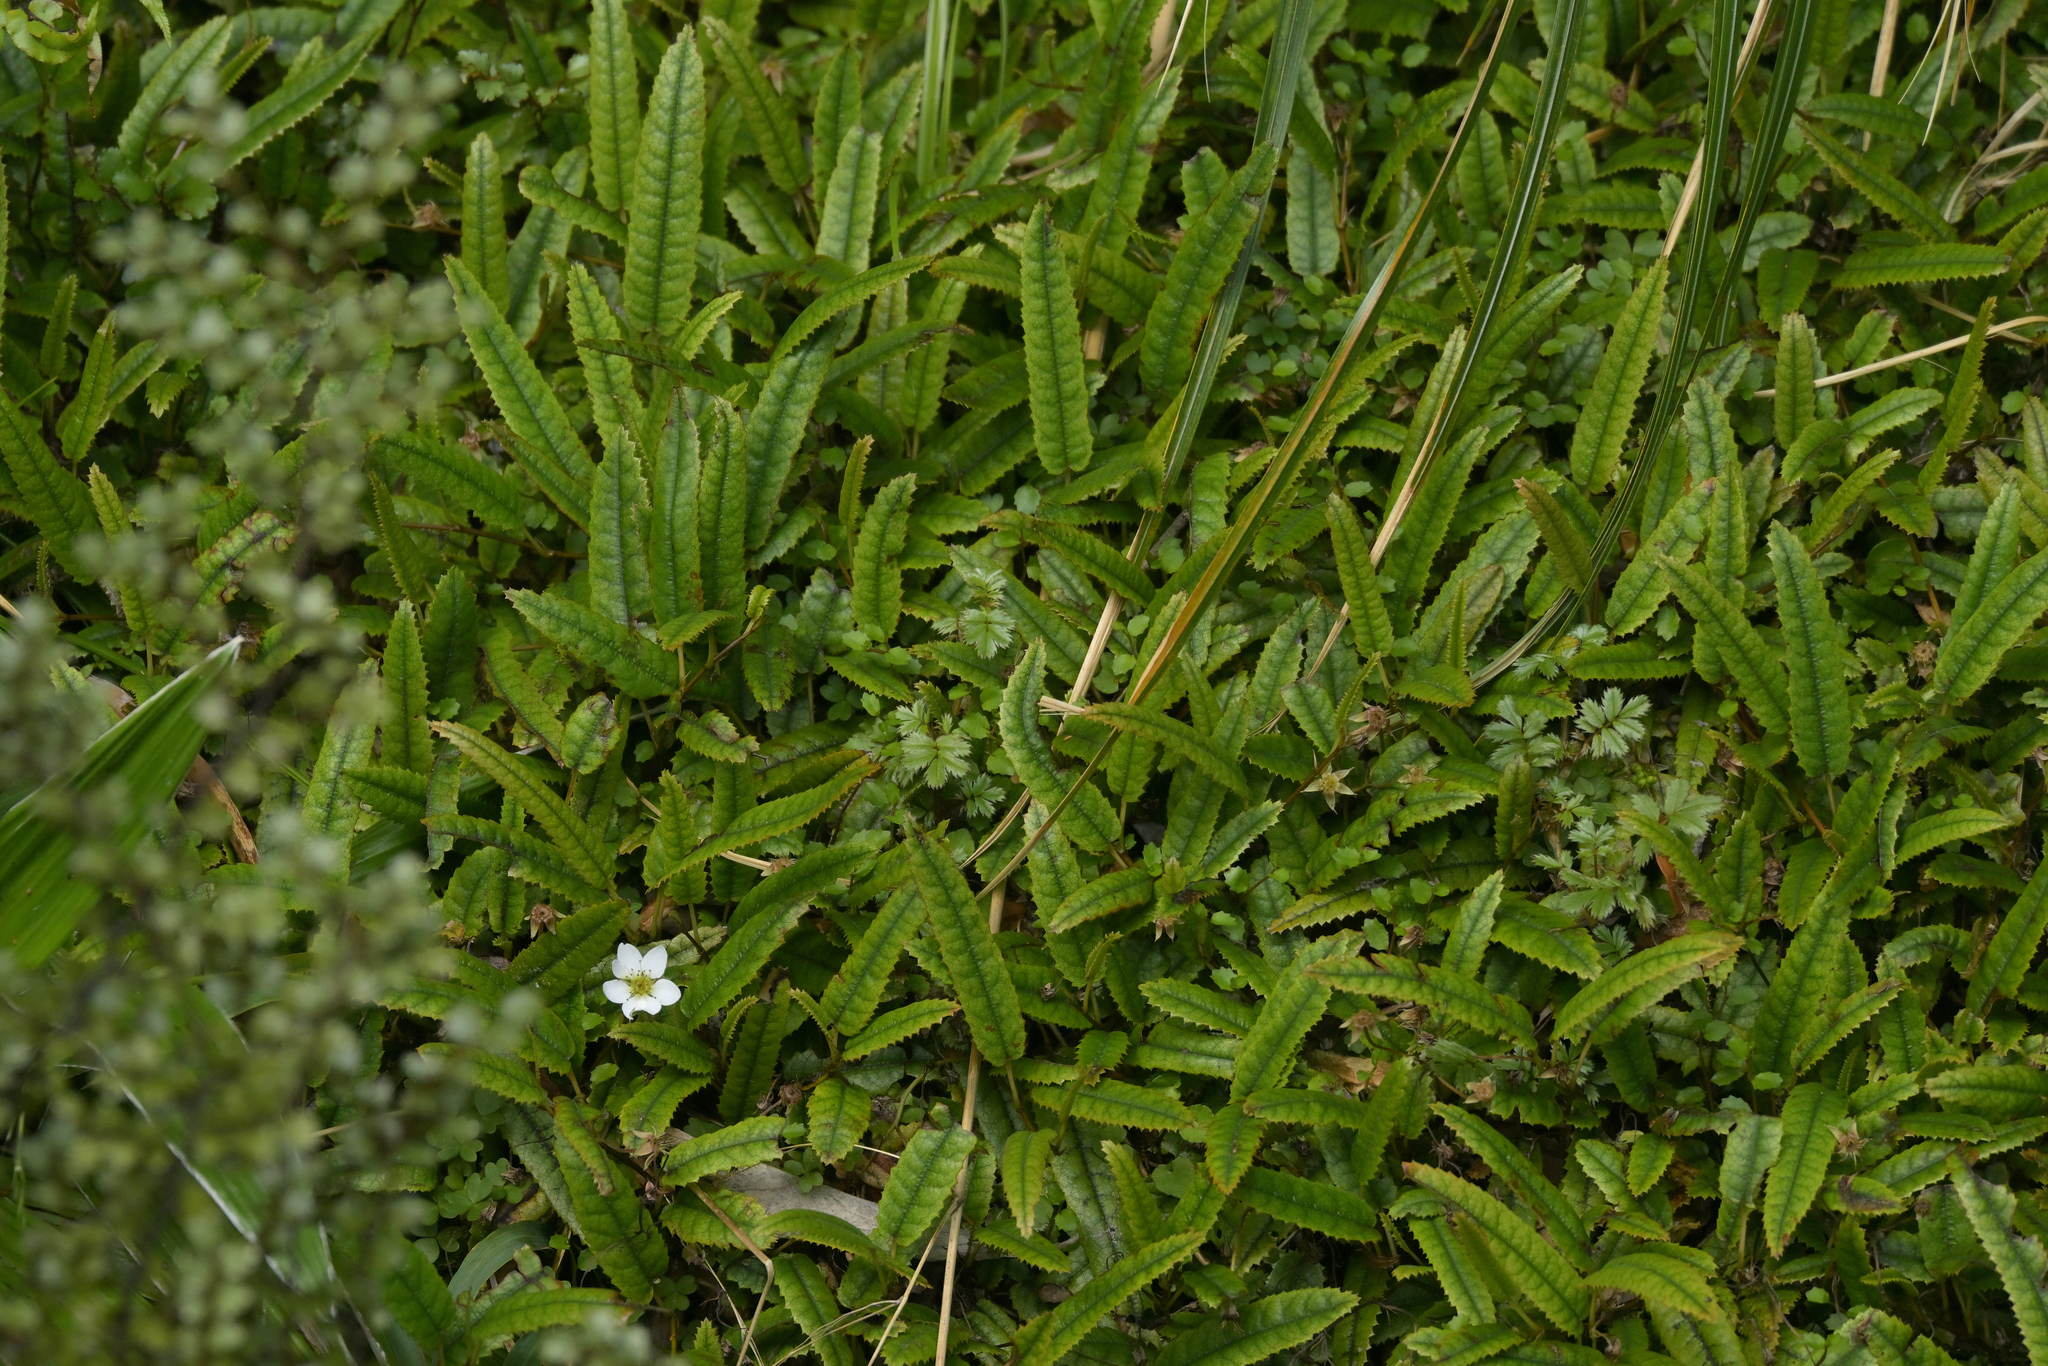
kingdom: Plantae
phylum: Tracheophyta
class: Magnoliopsida
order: Rosales
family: Rosaceae
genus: Rubus
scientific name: Rubus parvus
